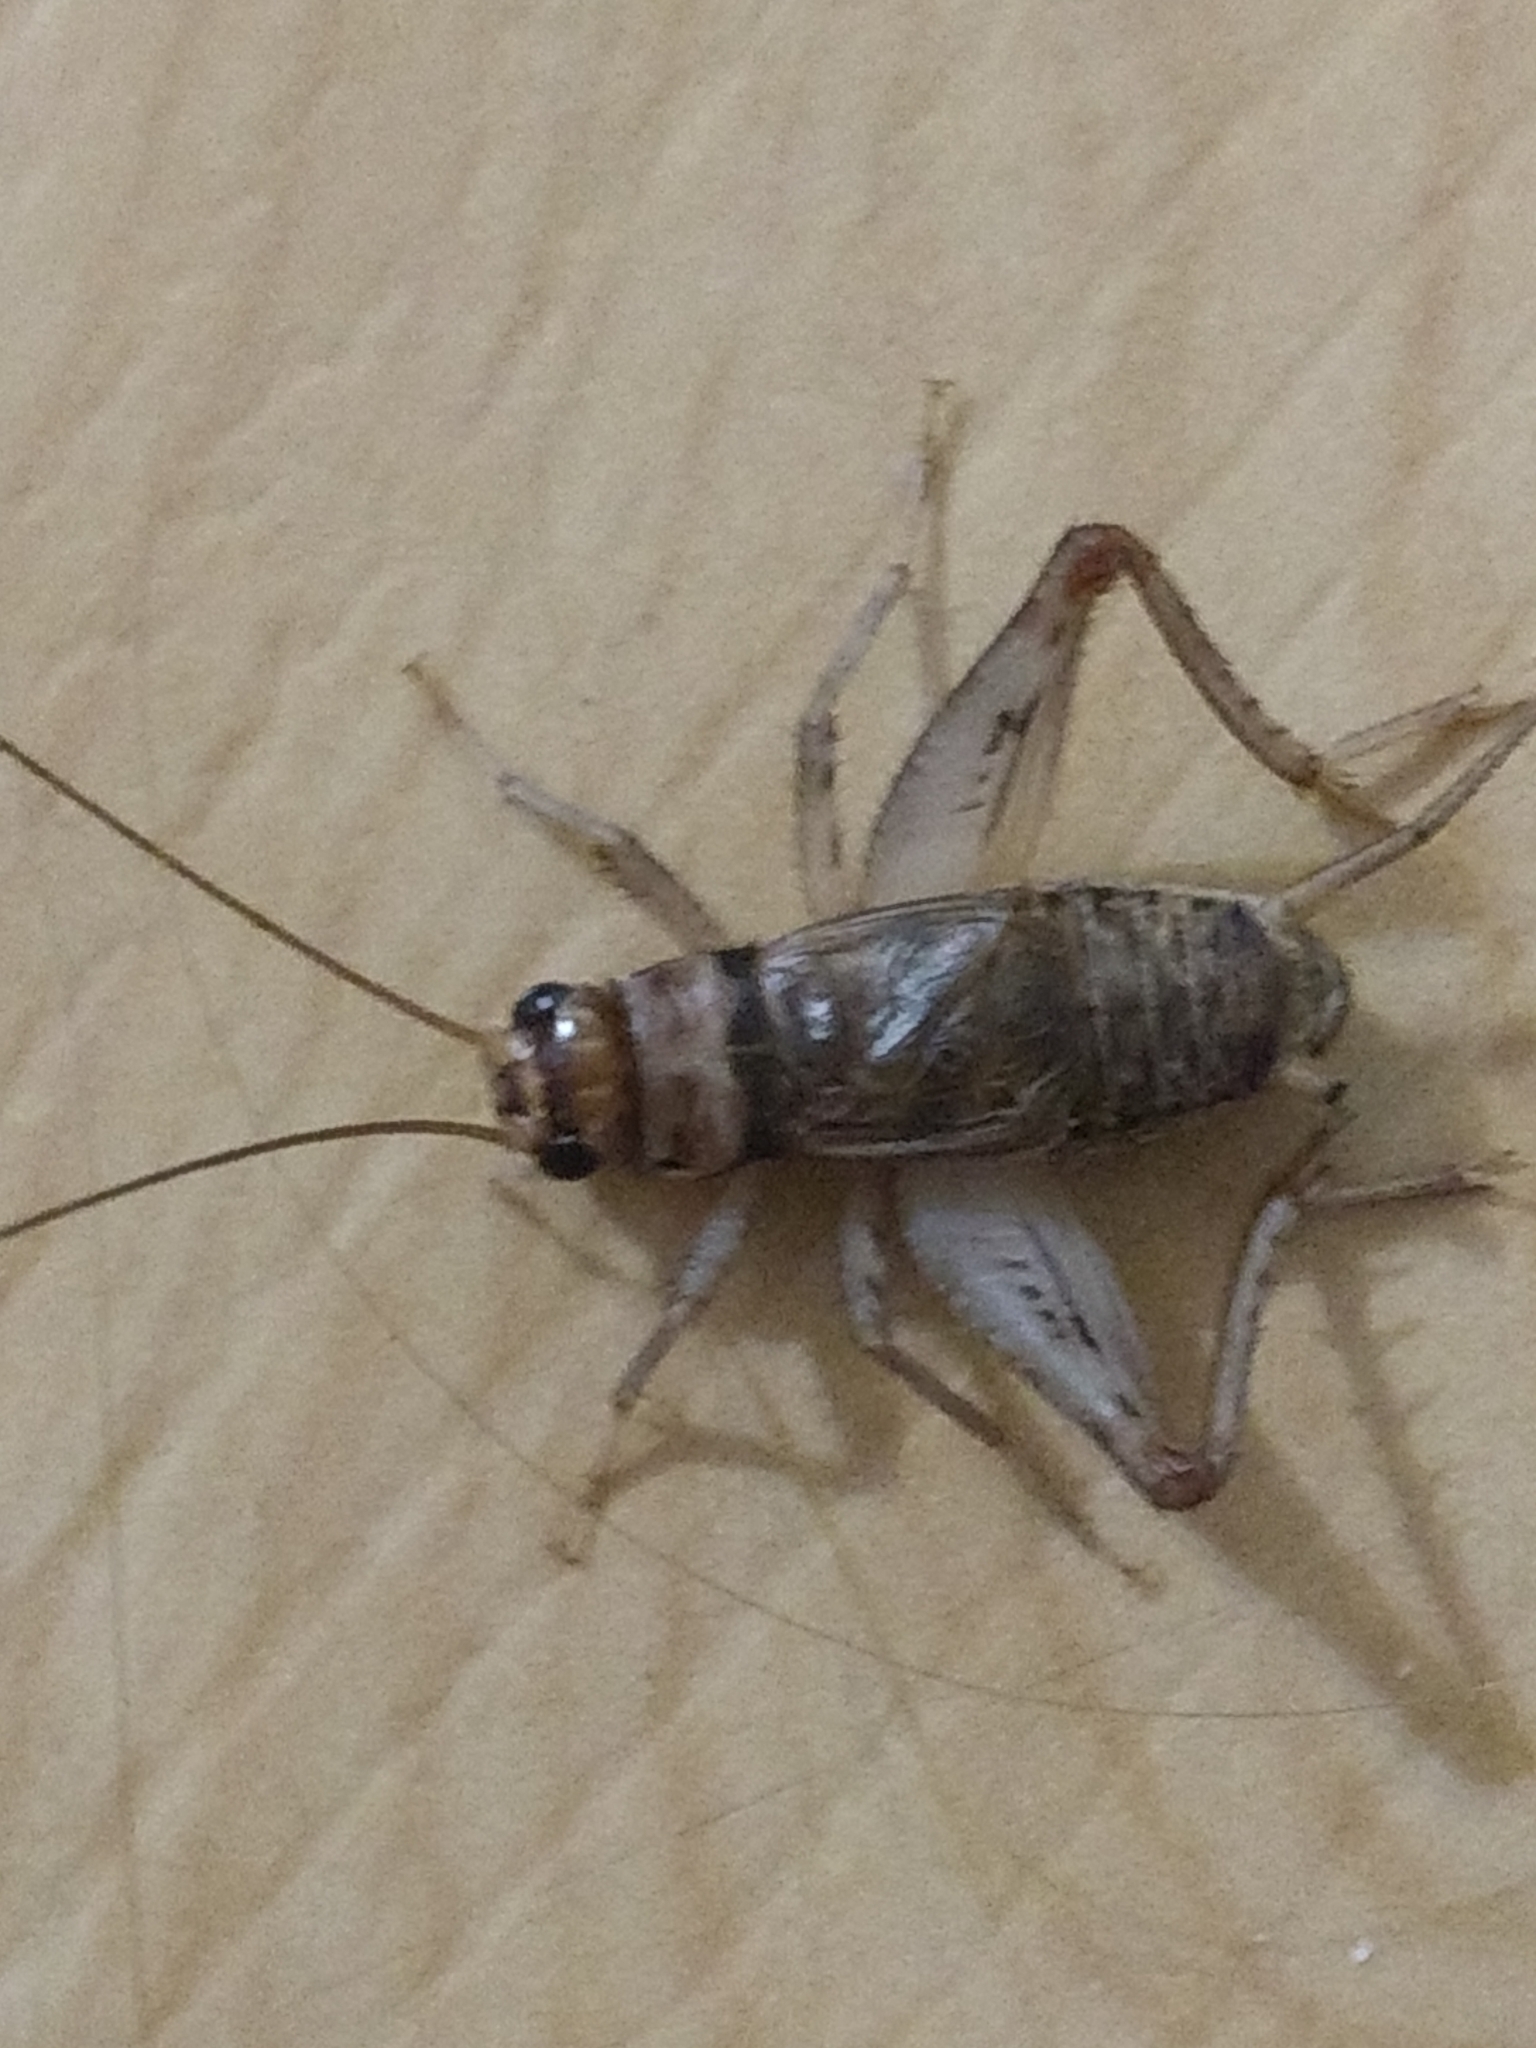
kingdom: Animalia
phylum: Arthropoda
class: Insecta
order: Orthoptera
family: Gryllidae
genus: Gryllodes
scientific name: Gryllodes sigillatus
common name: Tropical house cricket
